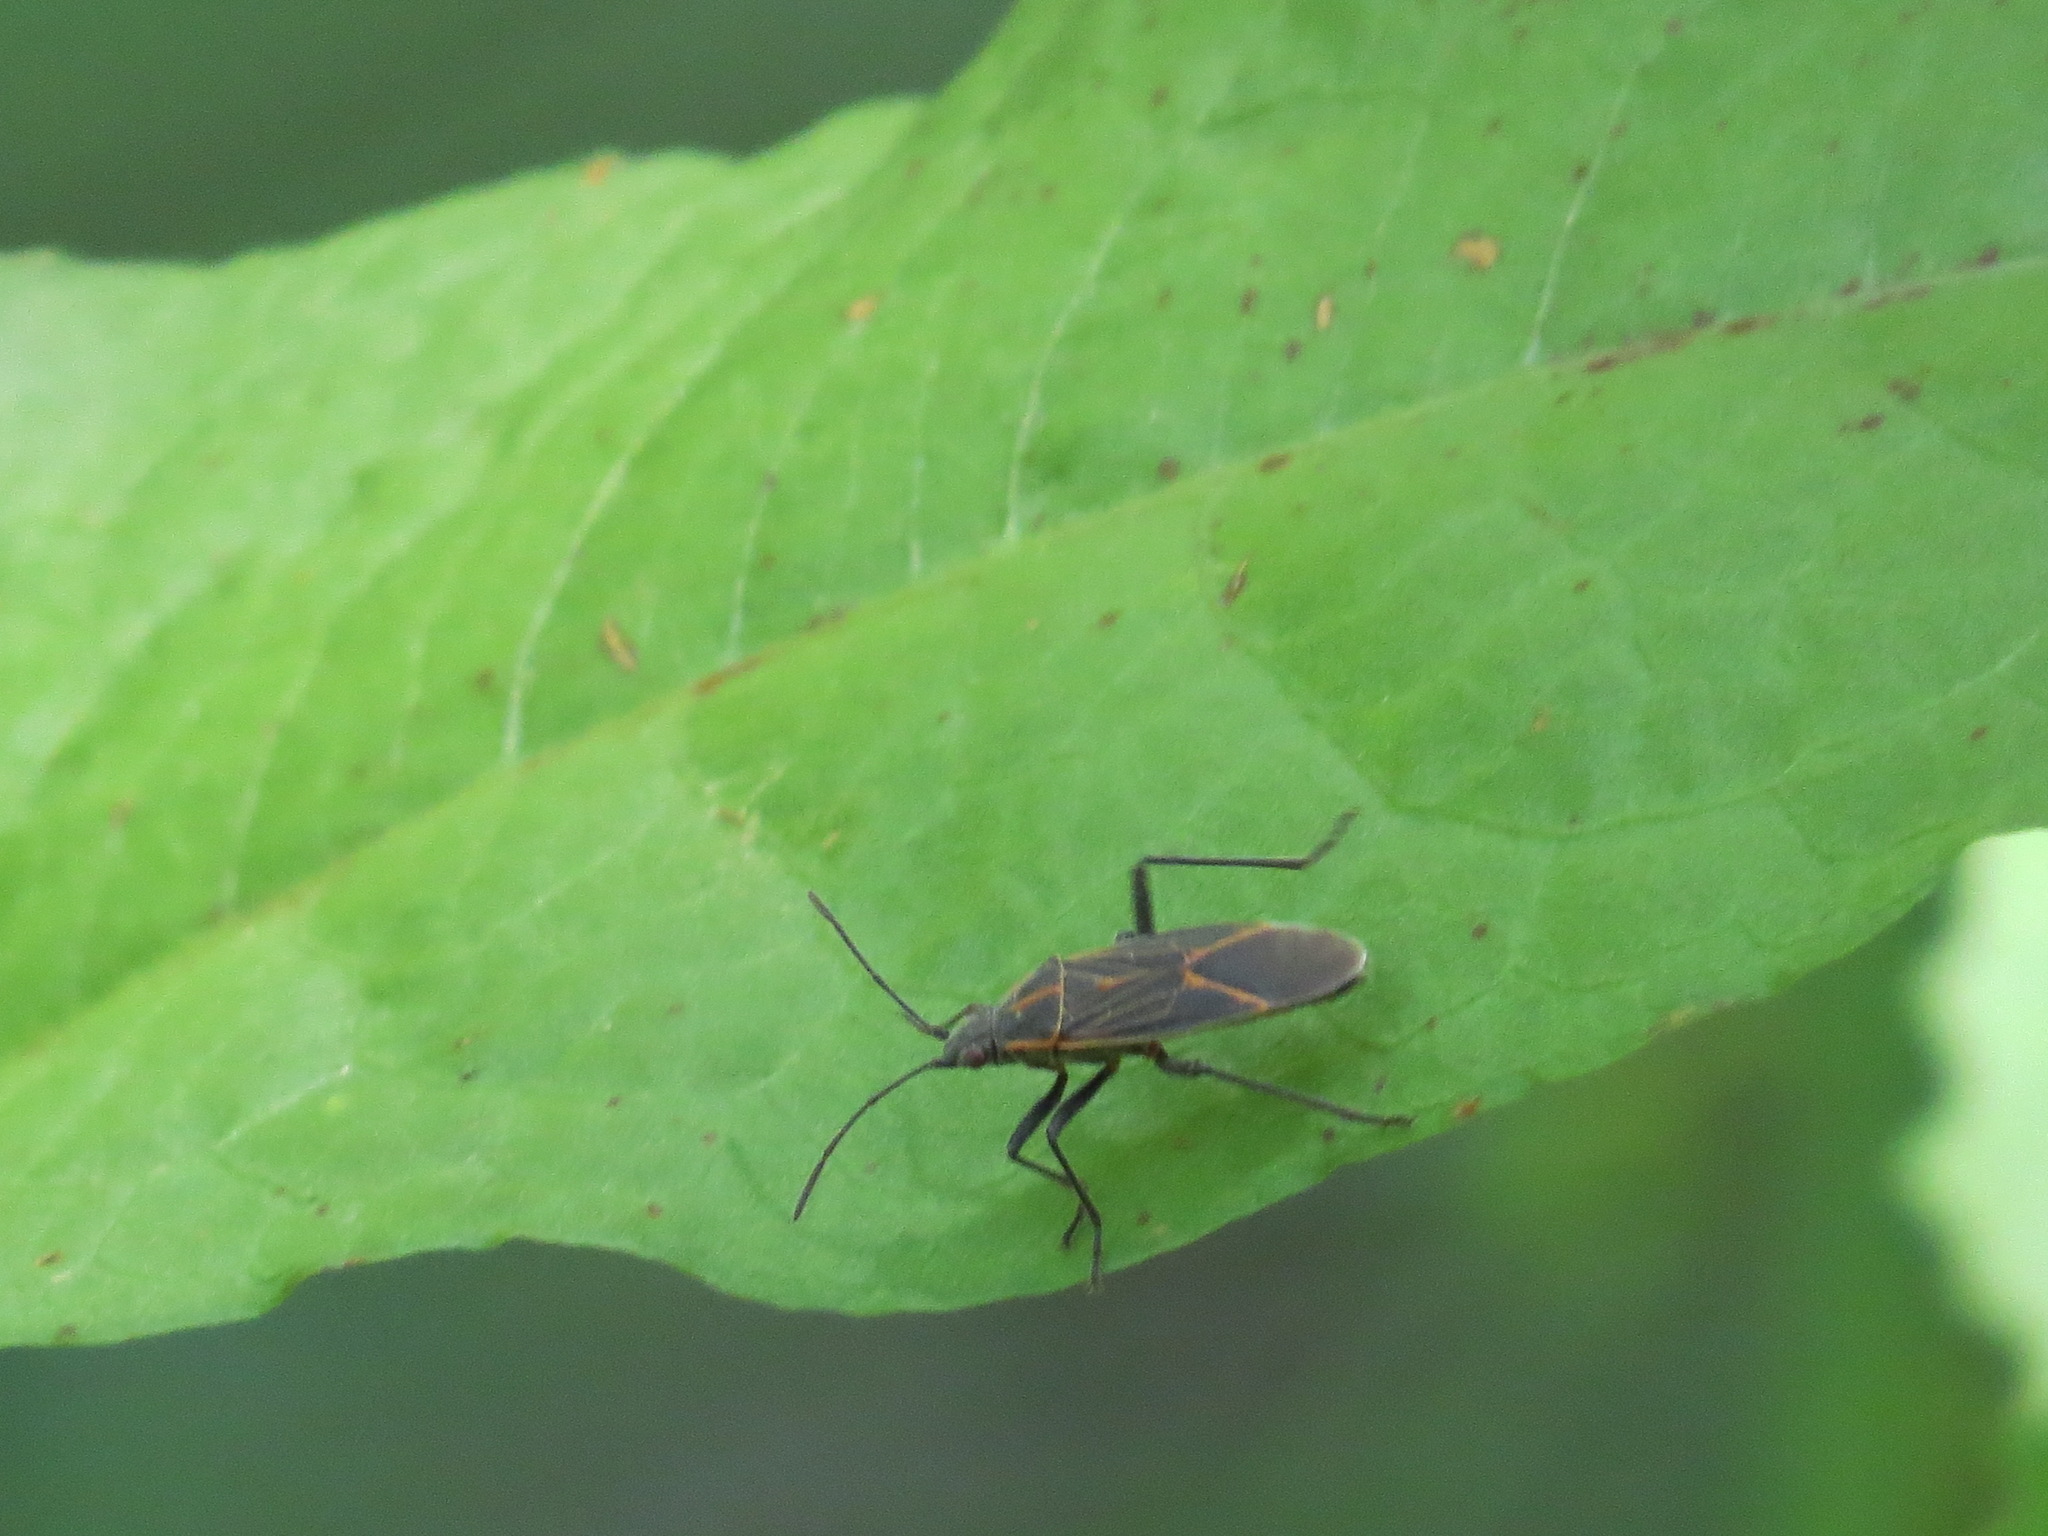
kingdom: Animalia
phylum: Arthropoda
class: Insecta
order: Hemiptera
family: Rhopalidae
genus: Boisea
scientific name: Boisea rubrolineata
